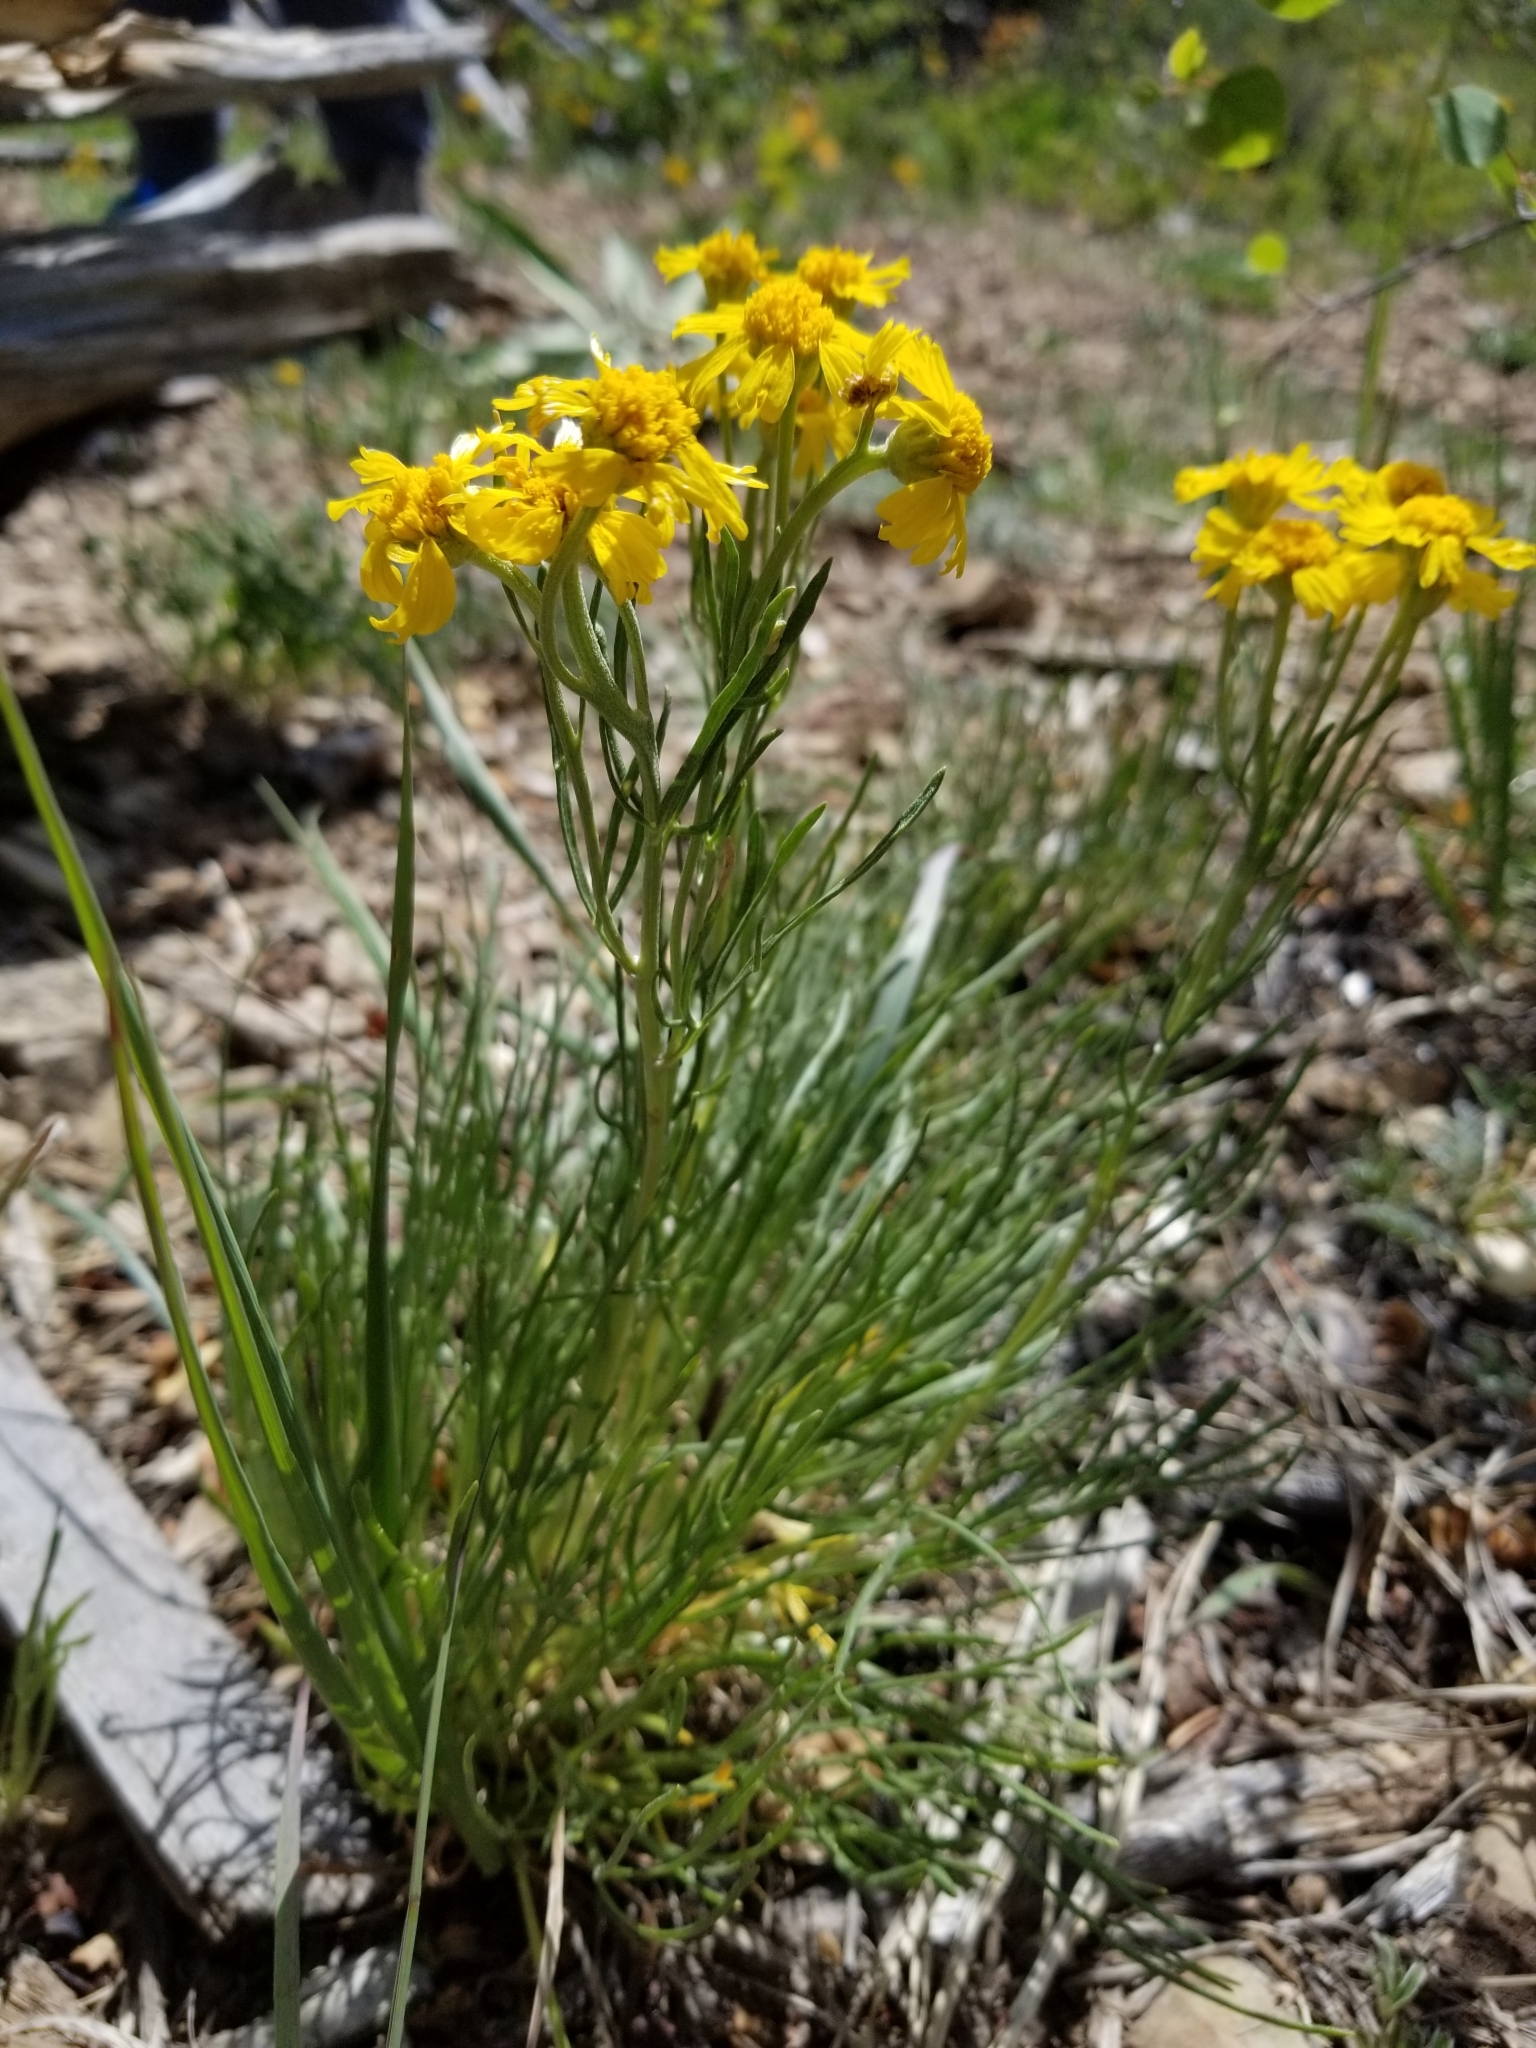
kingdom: Plantae
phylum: Tracheophyta
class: Magnoliopsida
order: Asterales
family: Asteraceae
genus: Hymenoxys
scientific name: Hymenoxys richardsonii
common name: Pingue rubberweed
